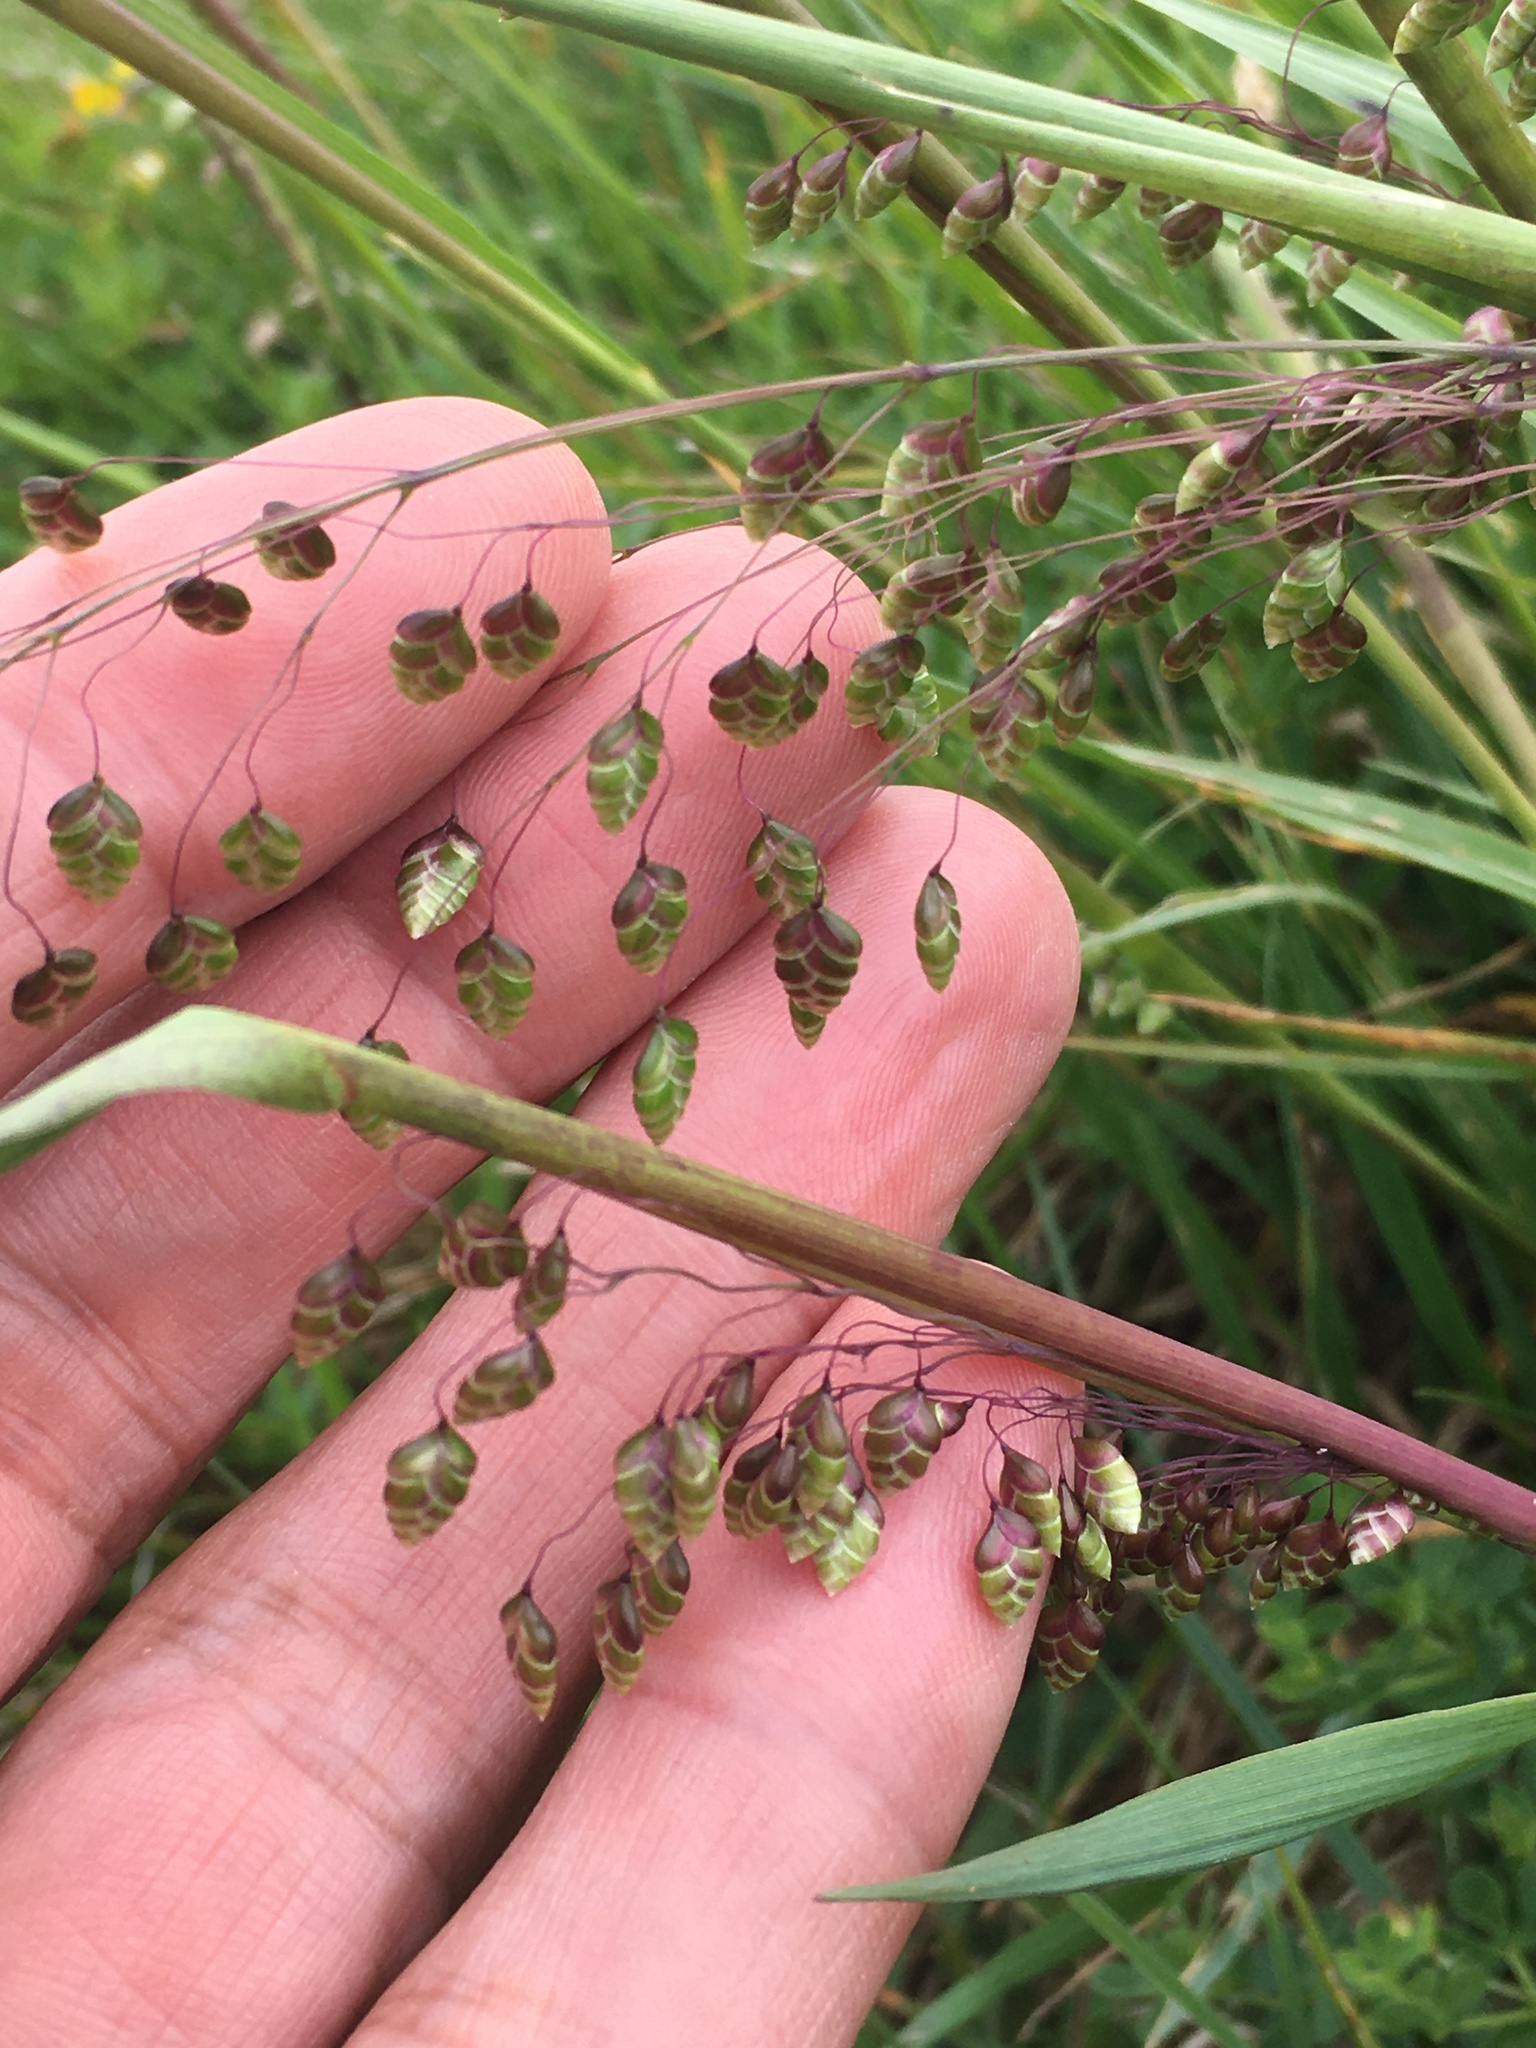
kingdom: Plantae
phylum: Tracheophyta
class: Liliopsida
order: Poales
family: Poaceae
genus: Briza
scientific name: Briza media
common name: Quaking grass
